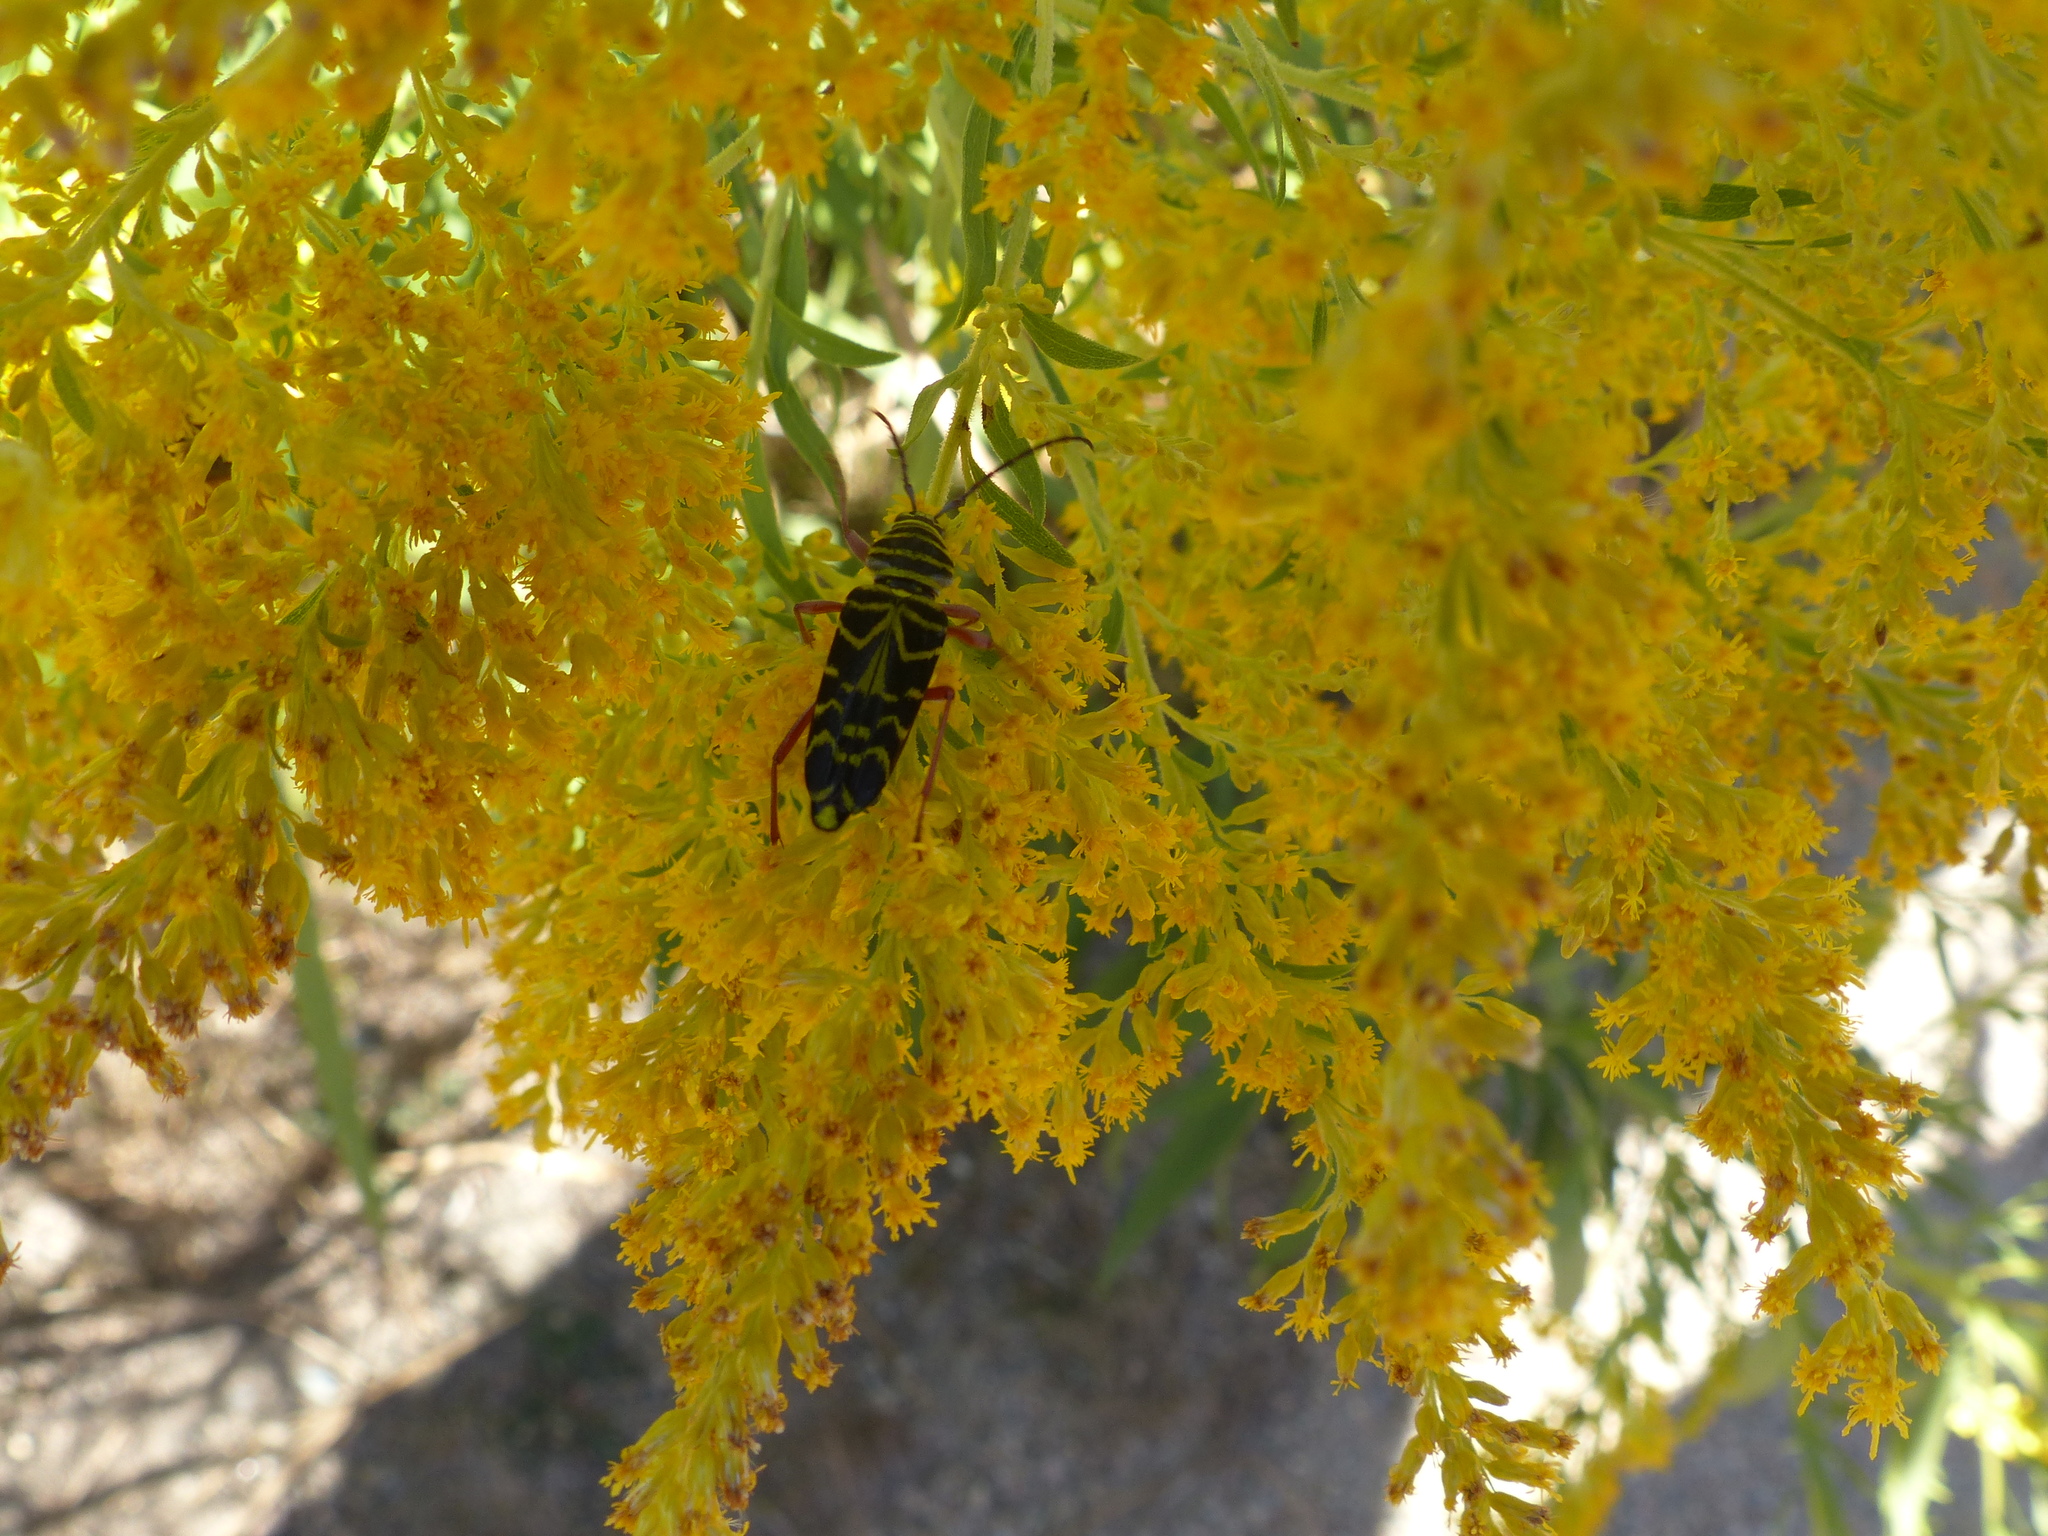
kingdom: Animalia
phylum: Arthropoda
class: Insecta
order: Coleoptera
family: Cerambycidae
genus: Megacyllene
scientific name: Megacyllene robiniae
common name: Locust borer
